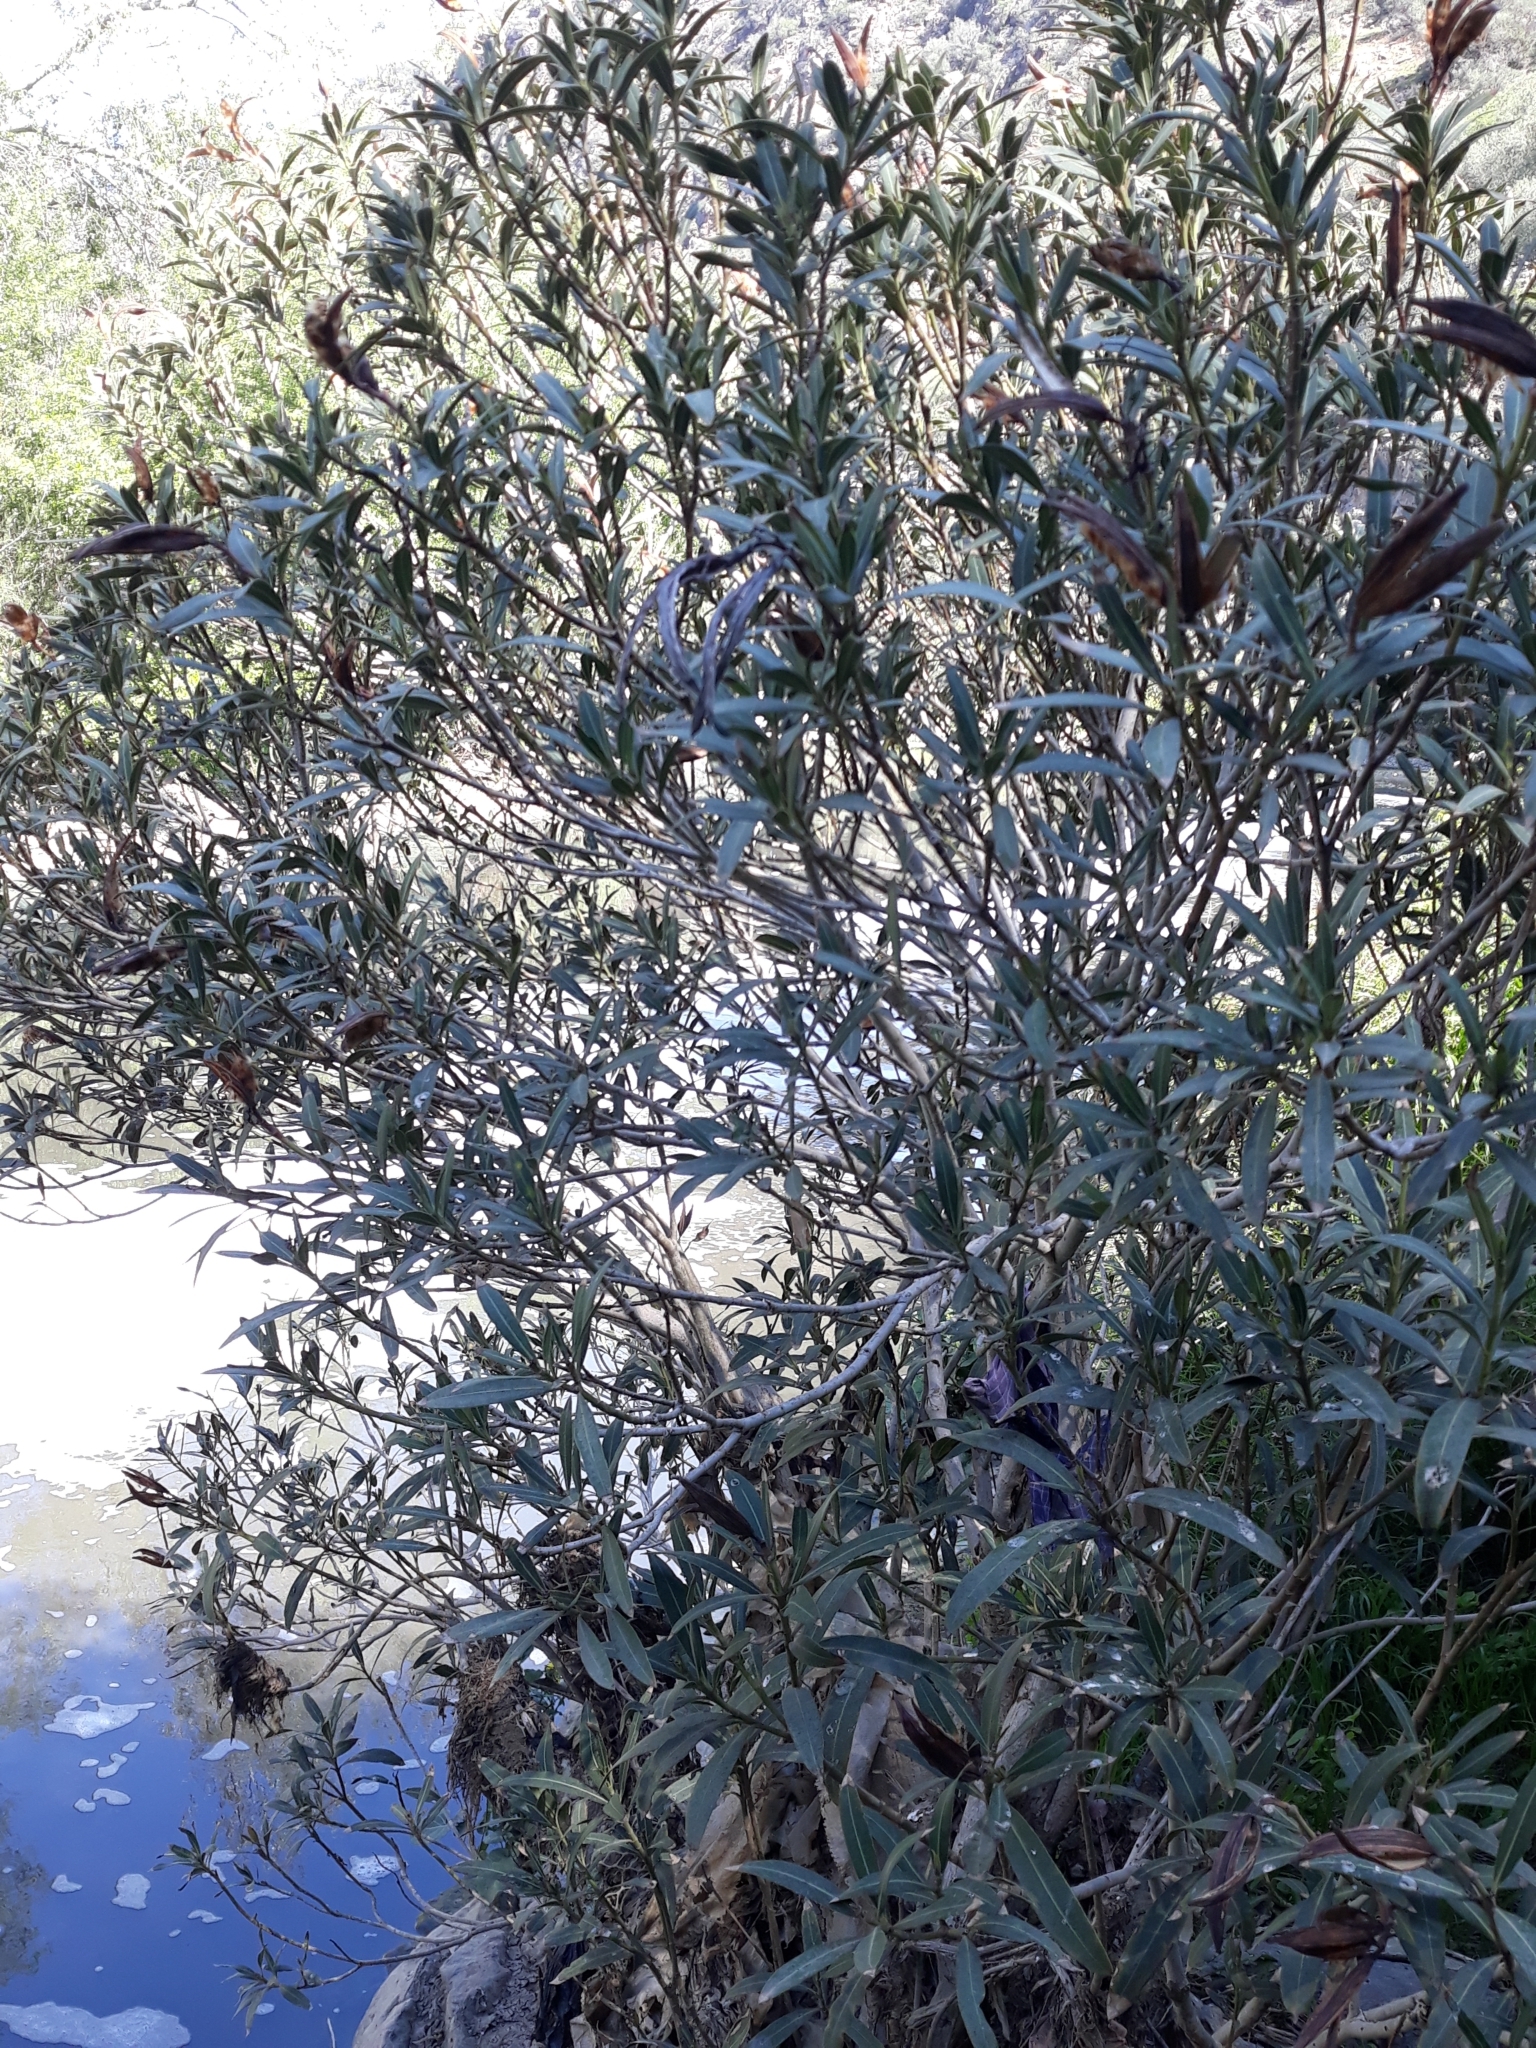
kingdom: Plantae
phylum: Tracheophyta
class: Magnoliopsida
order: Gentianales
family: Apocynaceae
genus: Nerium
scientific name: Nerium oleander
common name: Oleander
